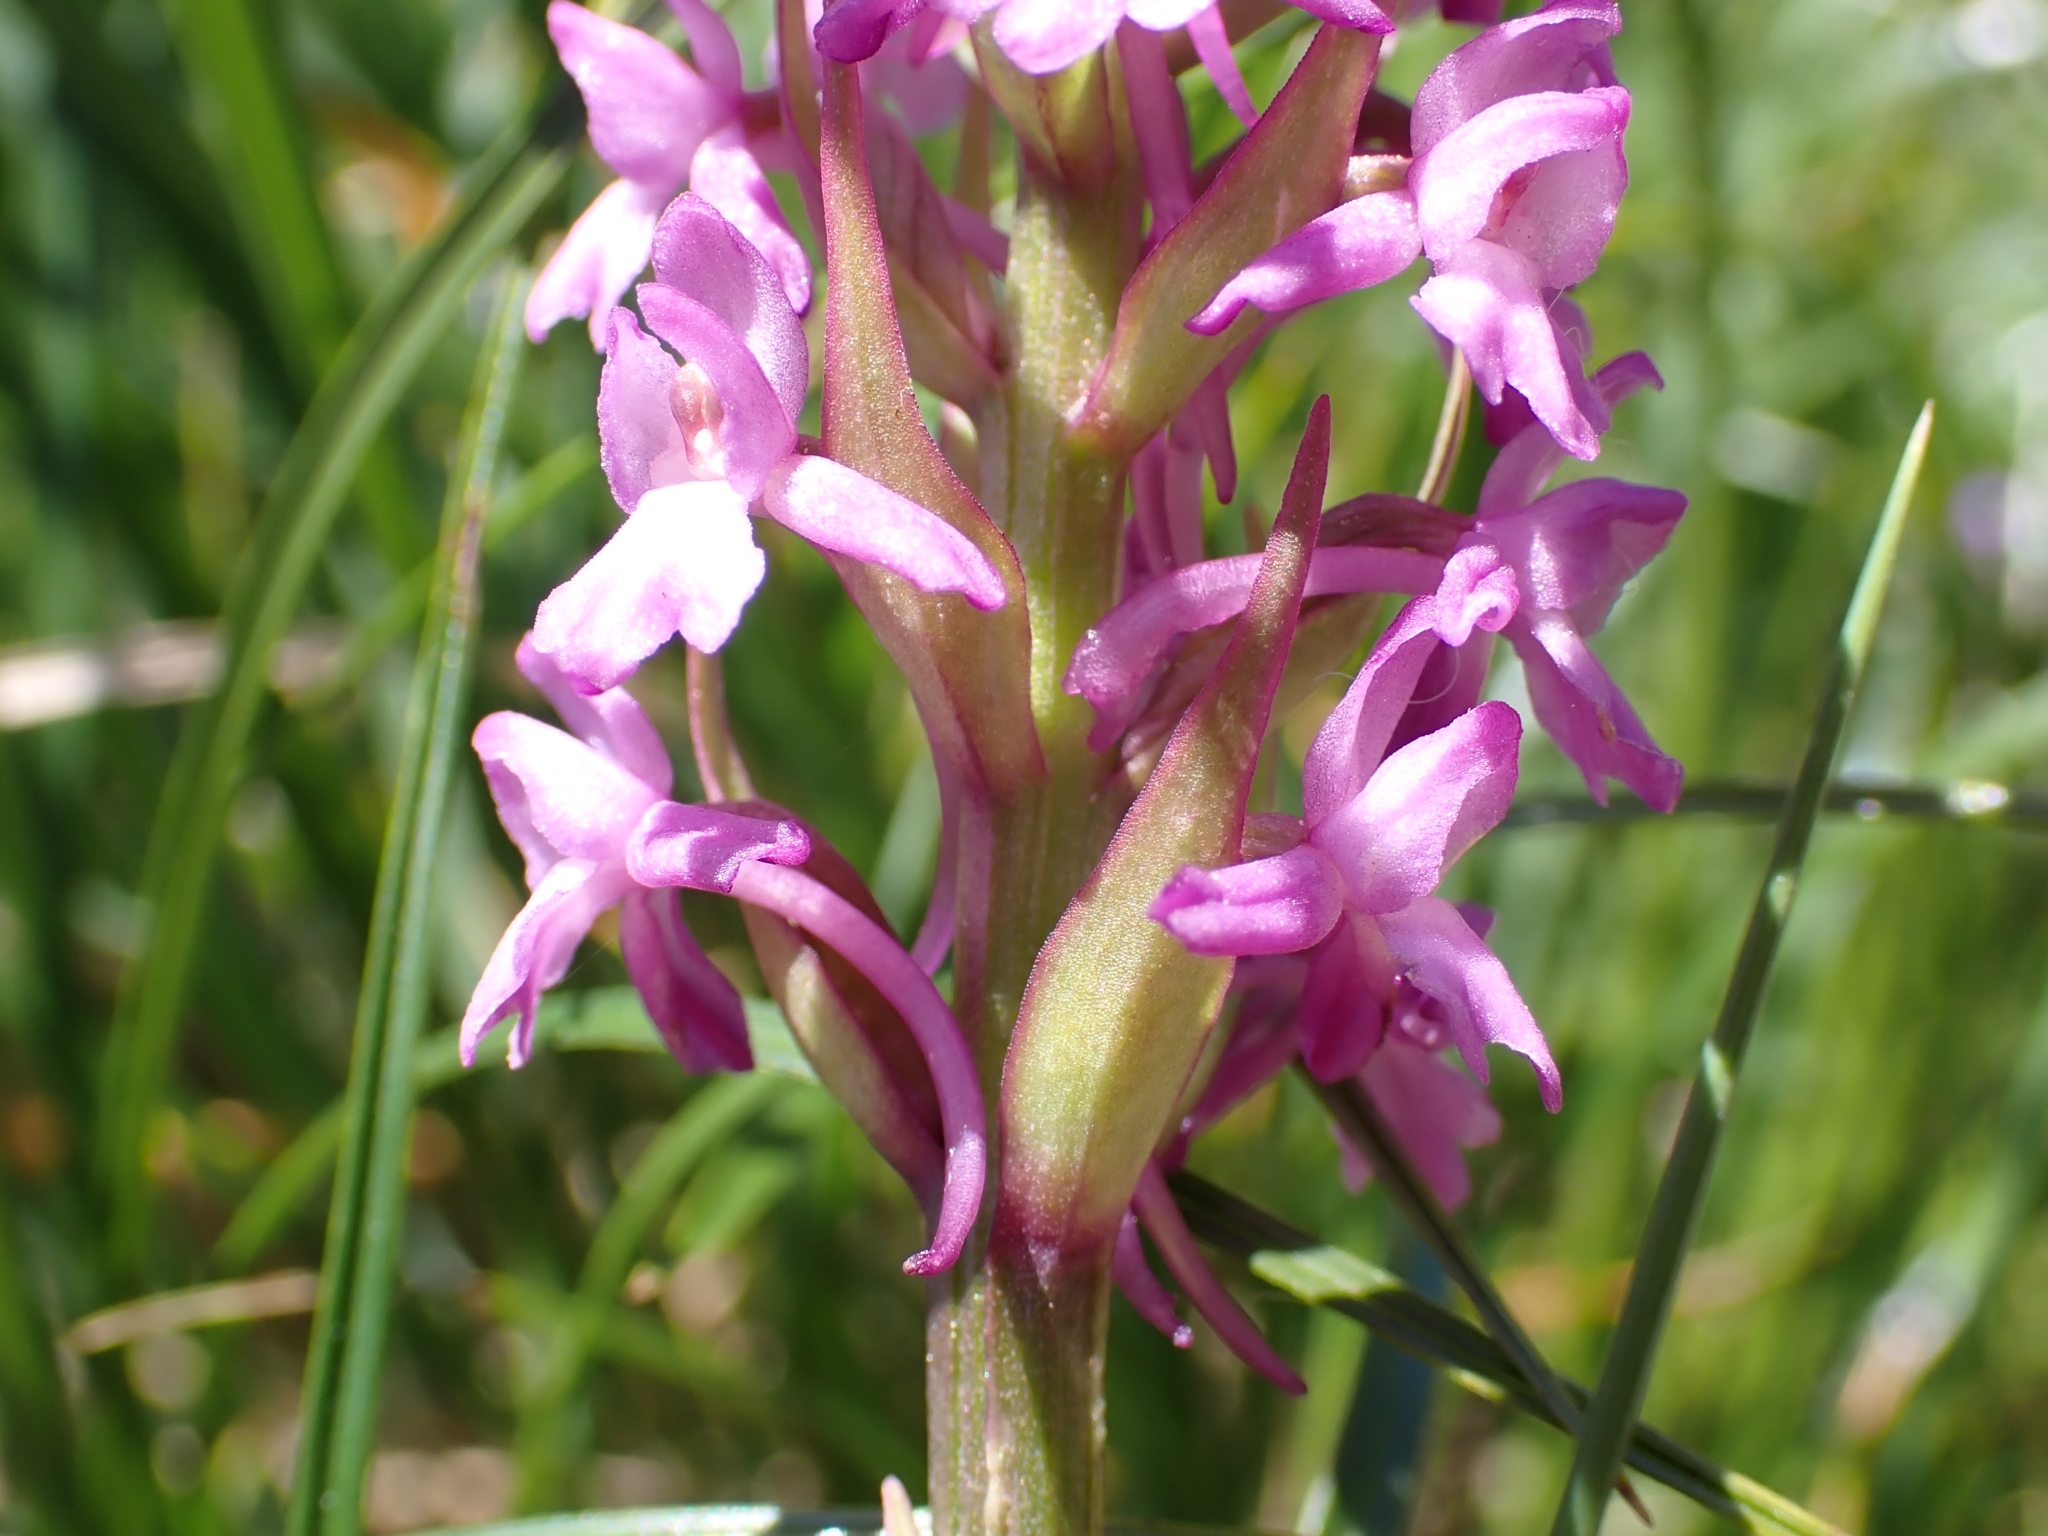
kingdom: Plantae
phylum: Tracheophyta
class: Liliopsida
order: Asparagales
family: Orchidaceae
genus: Gymnadenia
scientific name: Gymnadenia conopsea
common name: Fragrant orchid
